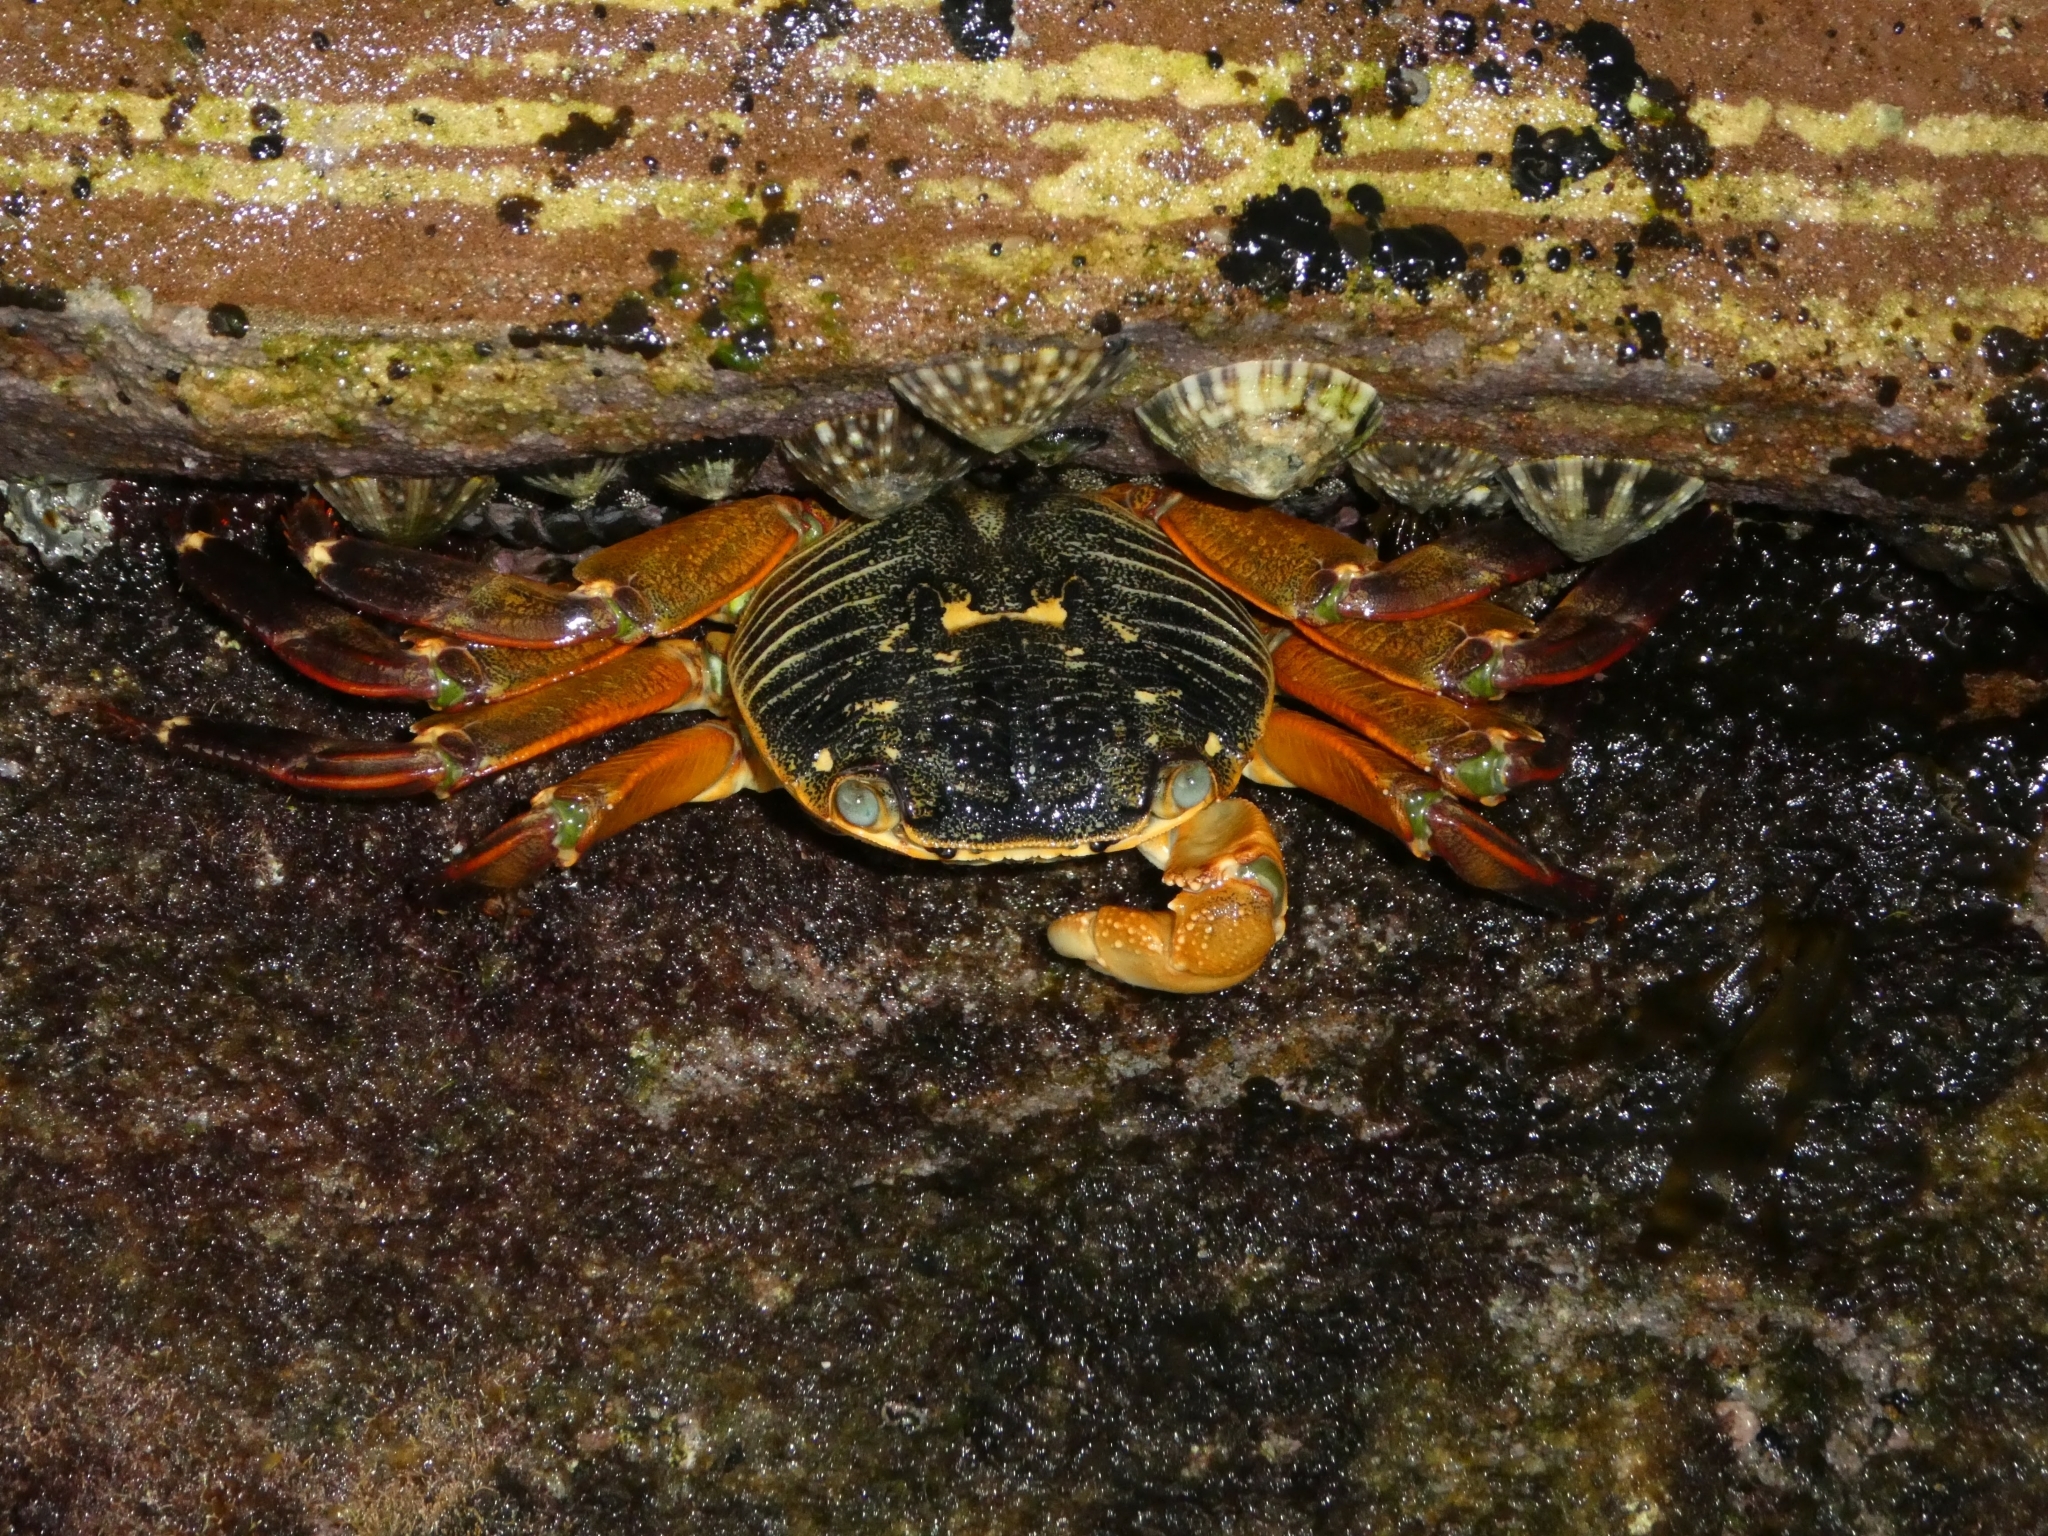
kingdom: Animalia
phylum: Arthropoda
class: Malacostraca
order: Decapoda
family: Grapsidae
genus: Leptograpsus
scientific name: Leptograpsus variegatus
